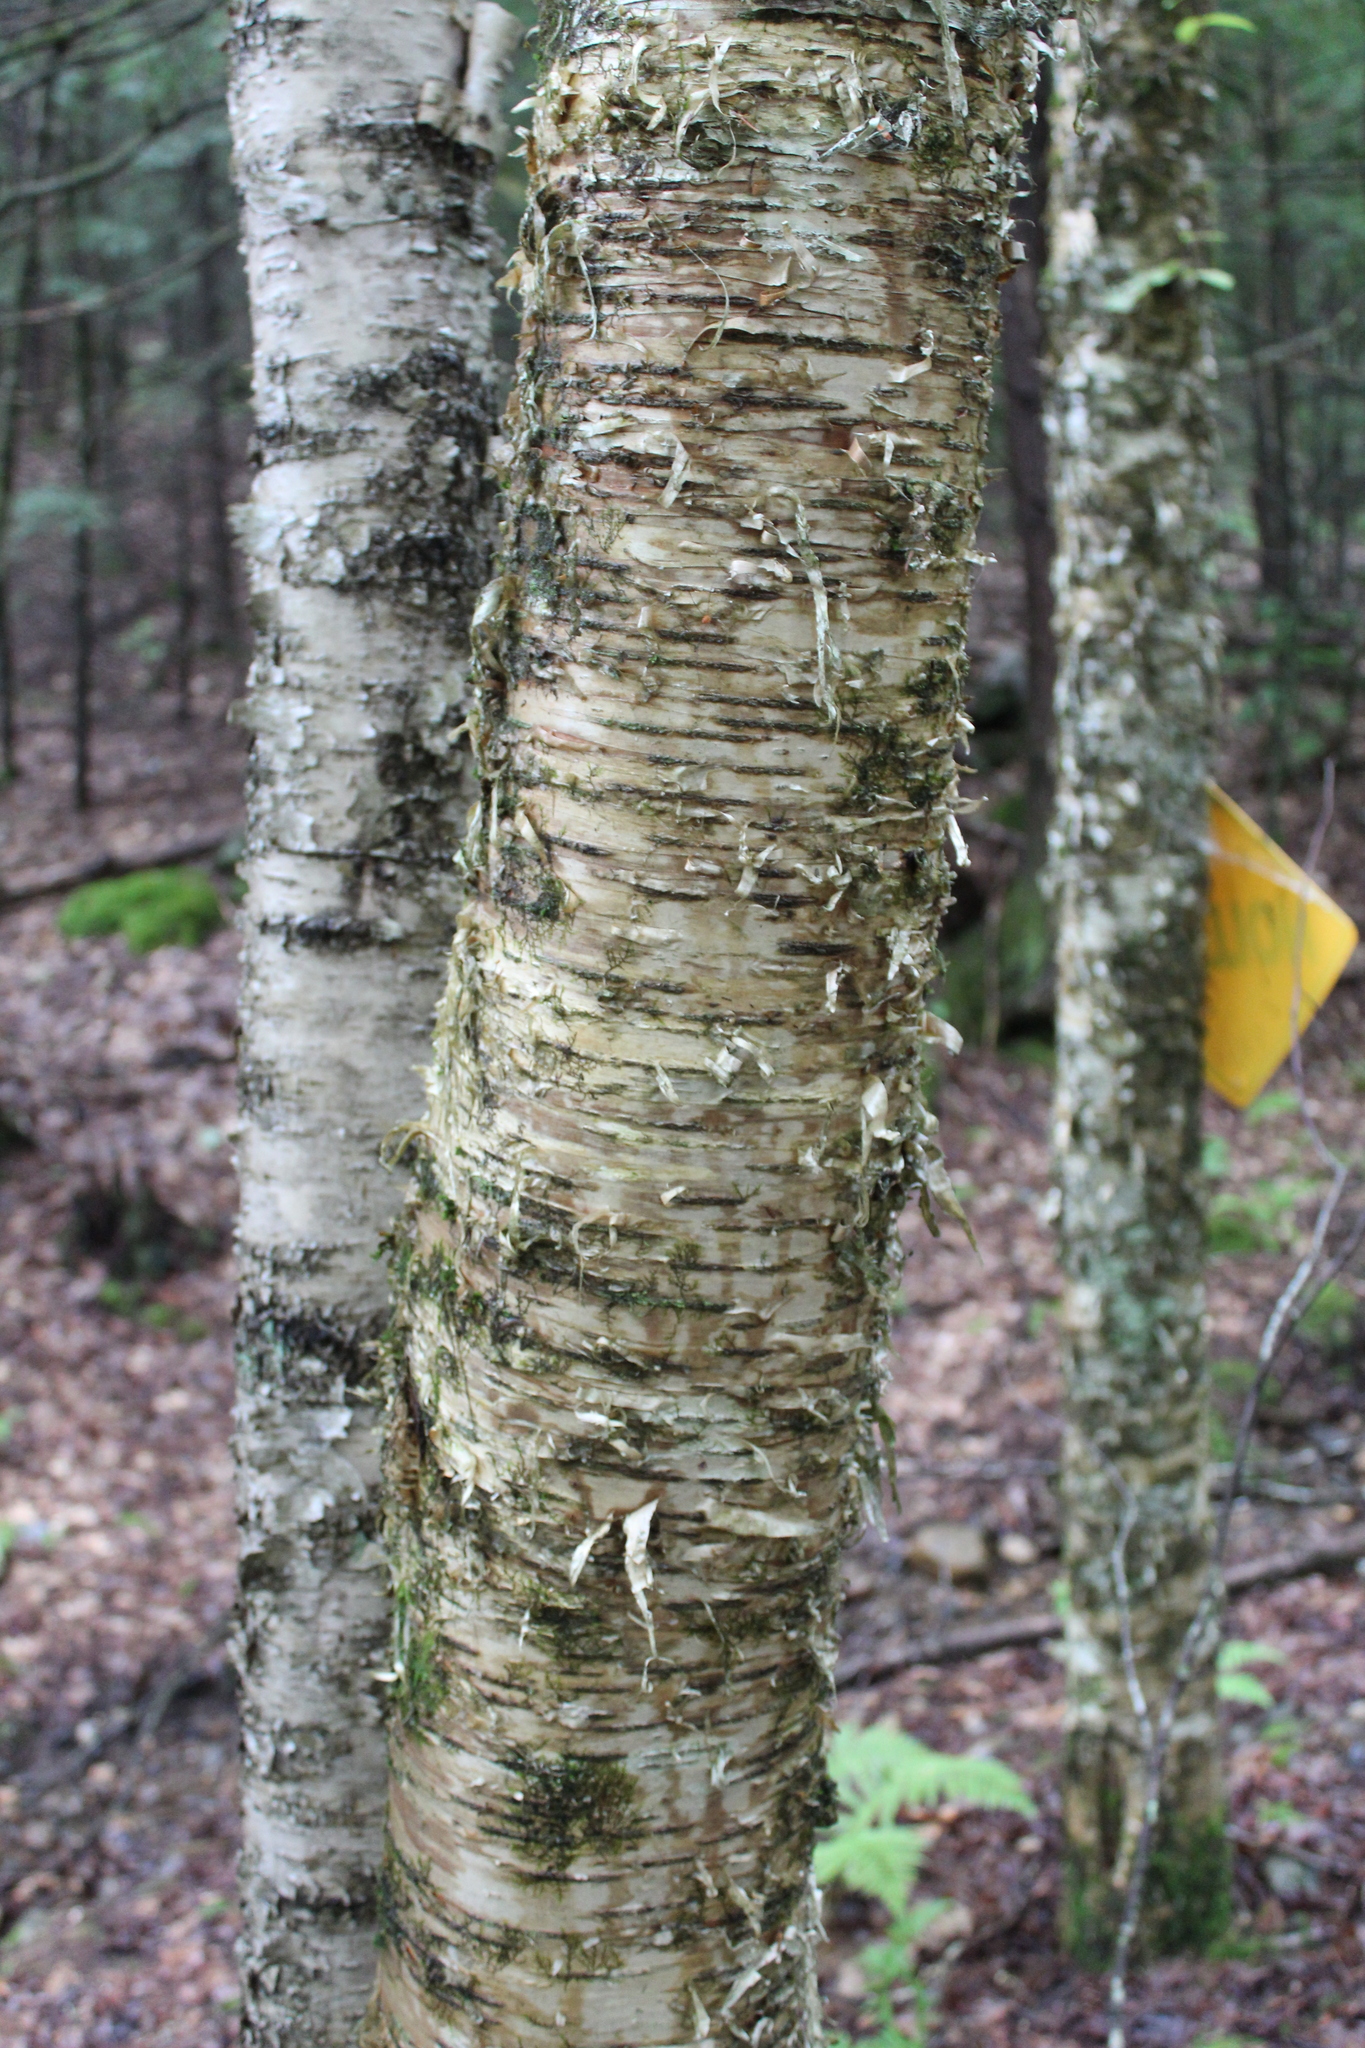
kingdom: Plantae
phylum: Tracheophyta
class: Magnoliopsida
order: Fagales
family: Betulaceae
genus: Betula
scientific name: Betula alleghaniensis
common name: Yellow birch
